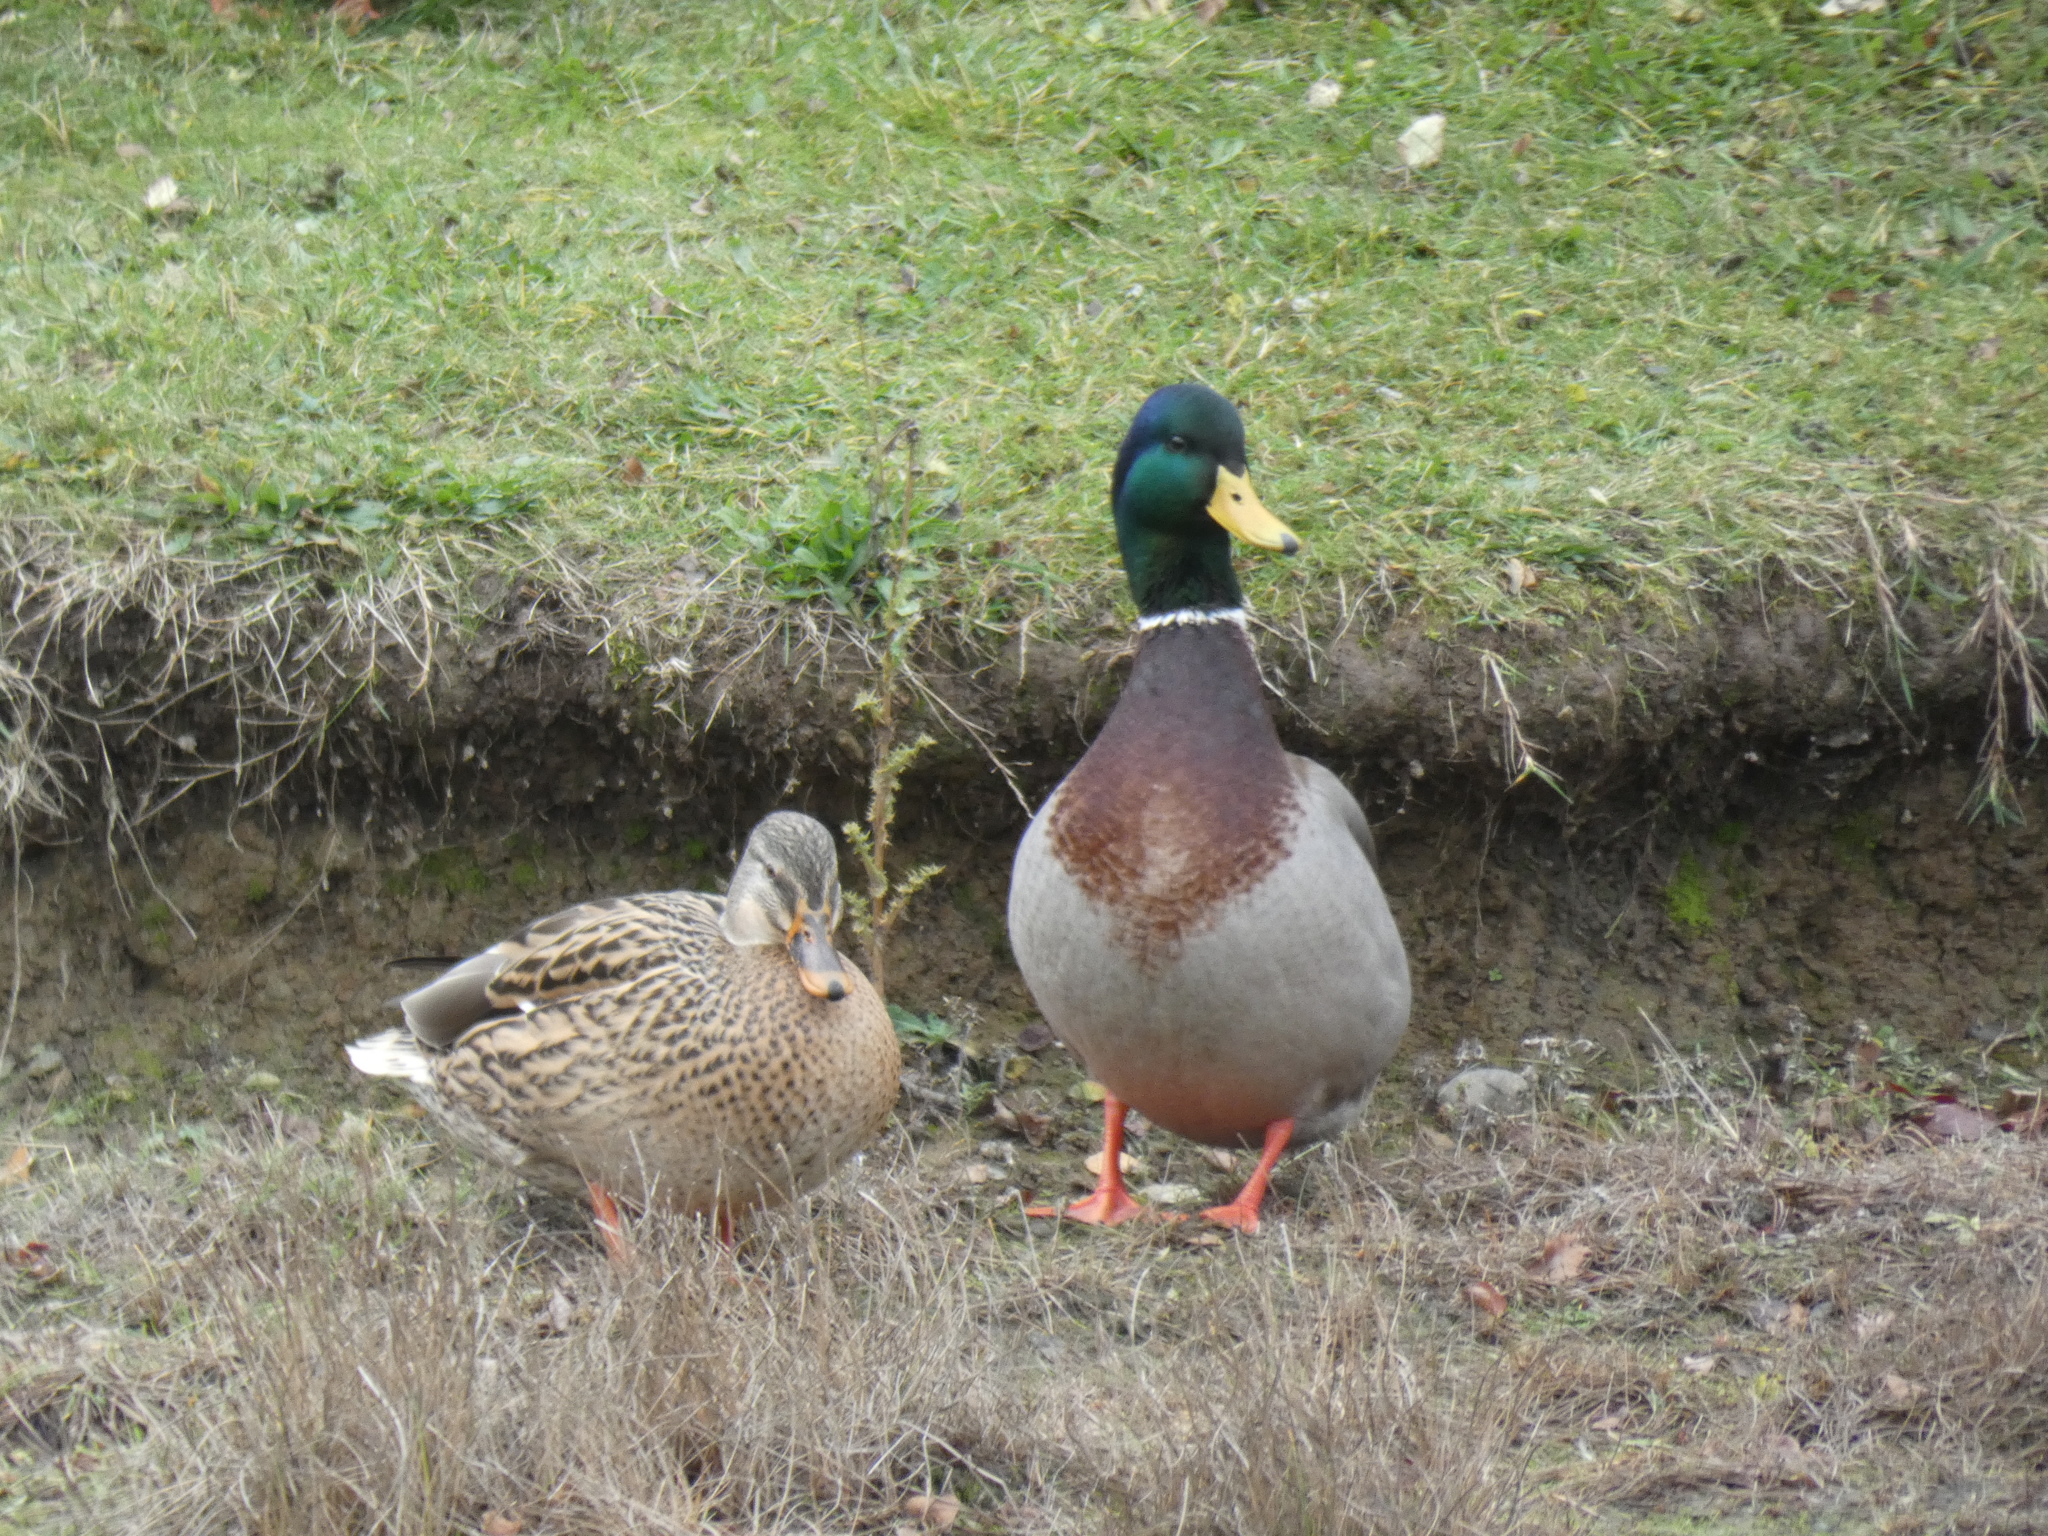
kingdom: Animalia
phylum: Chordata
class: Aves
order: Anseriformes
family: Anatidae
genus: Anas
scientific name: Anas platyrhynchos
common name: Mallard
